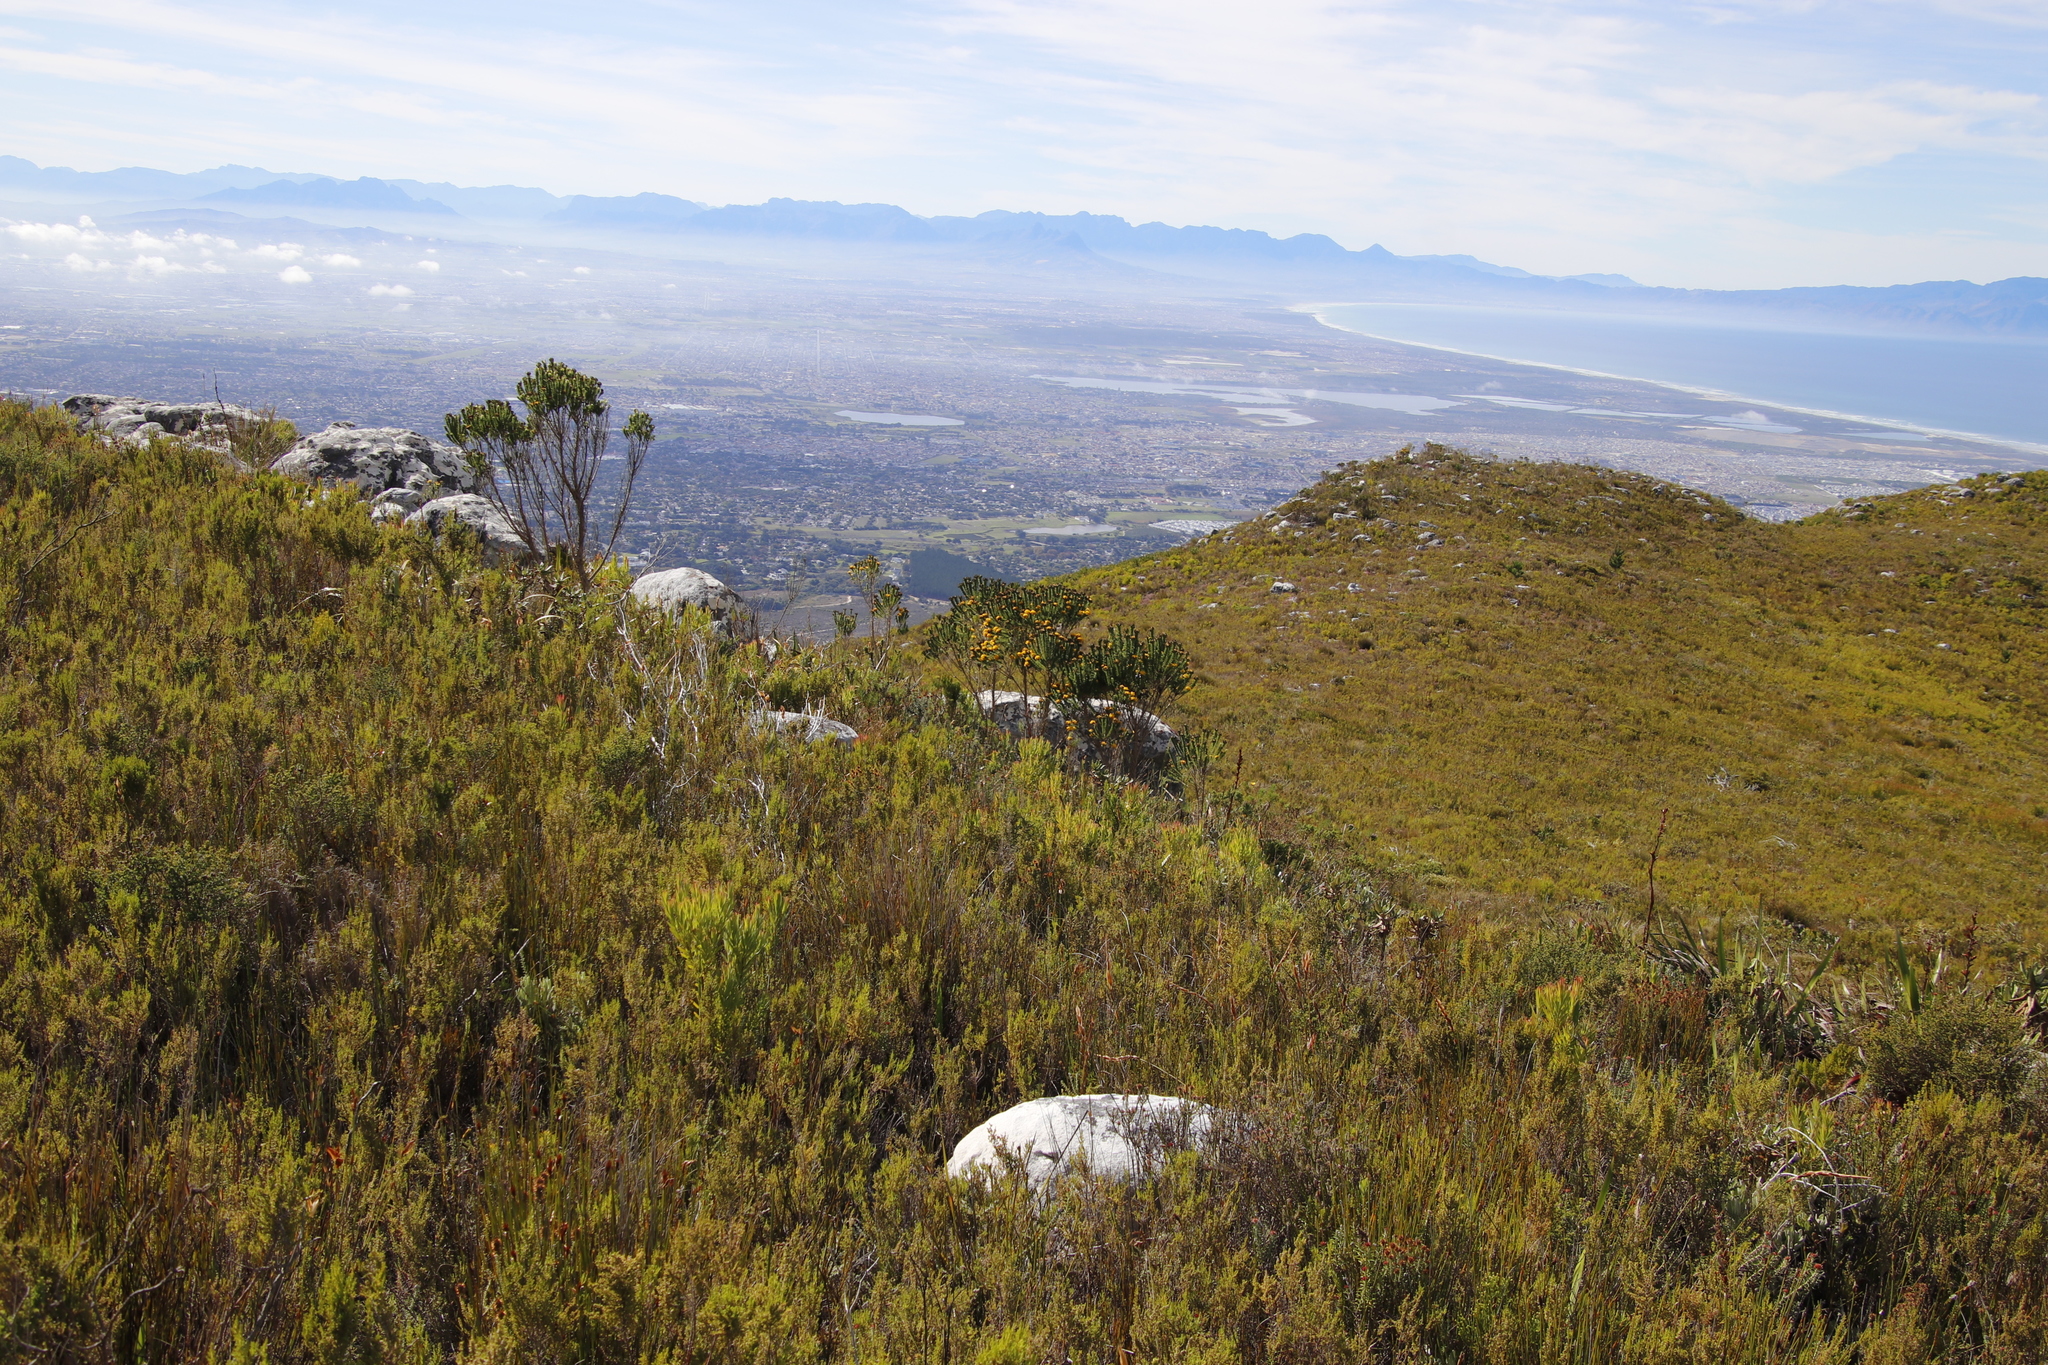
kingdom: Plantae
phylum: Tracheophyta
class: Magnoliopsida
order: Fabales
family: Fabaceae
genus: Aspalathus
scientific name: Aspalathus capitata
